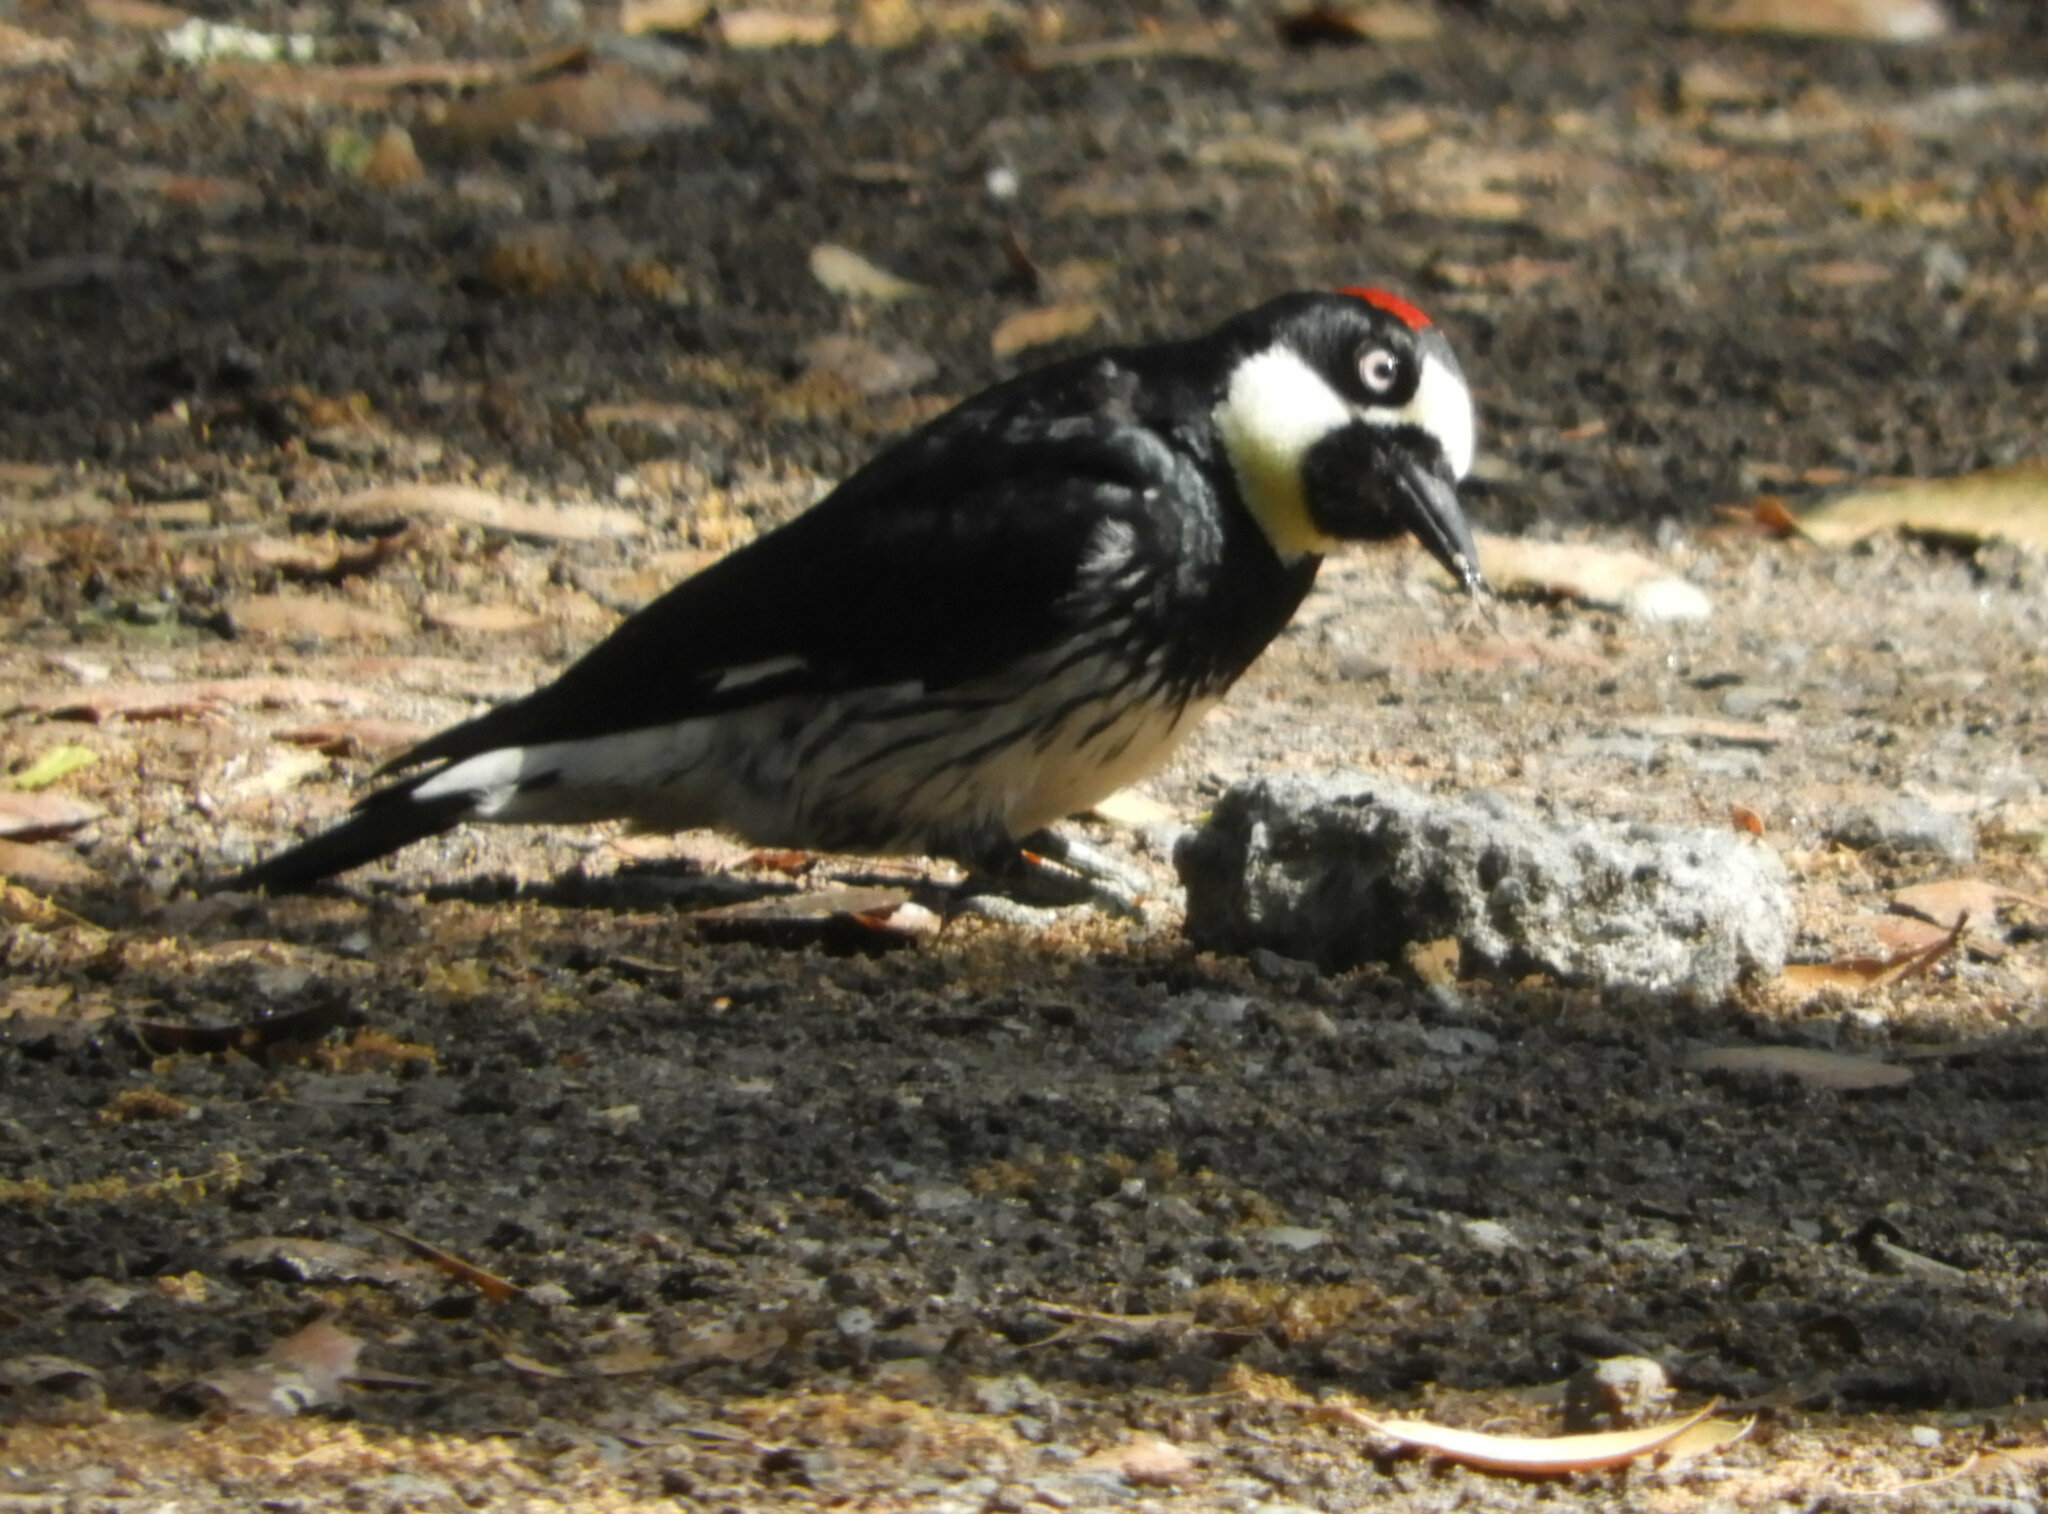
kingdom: Animalia
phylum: Chordata
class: Aves
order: Piciformes
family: Picidae
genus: Melanerpes
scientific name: Melanerpes formicivorus
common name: Acorn woodpecker
